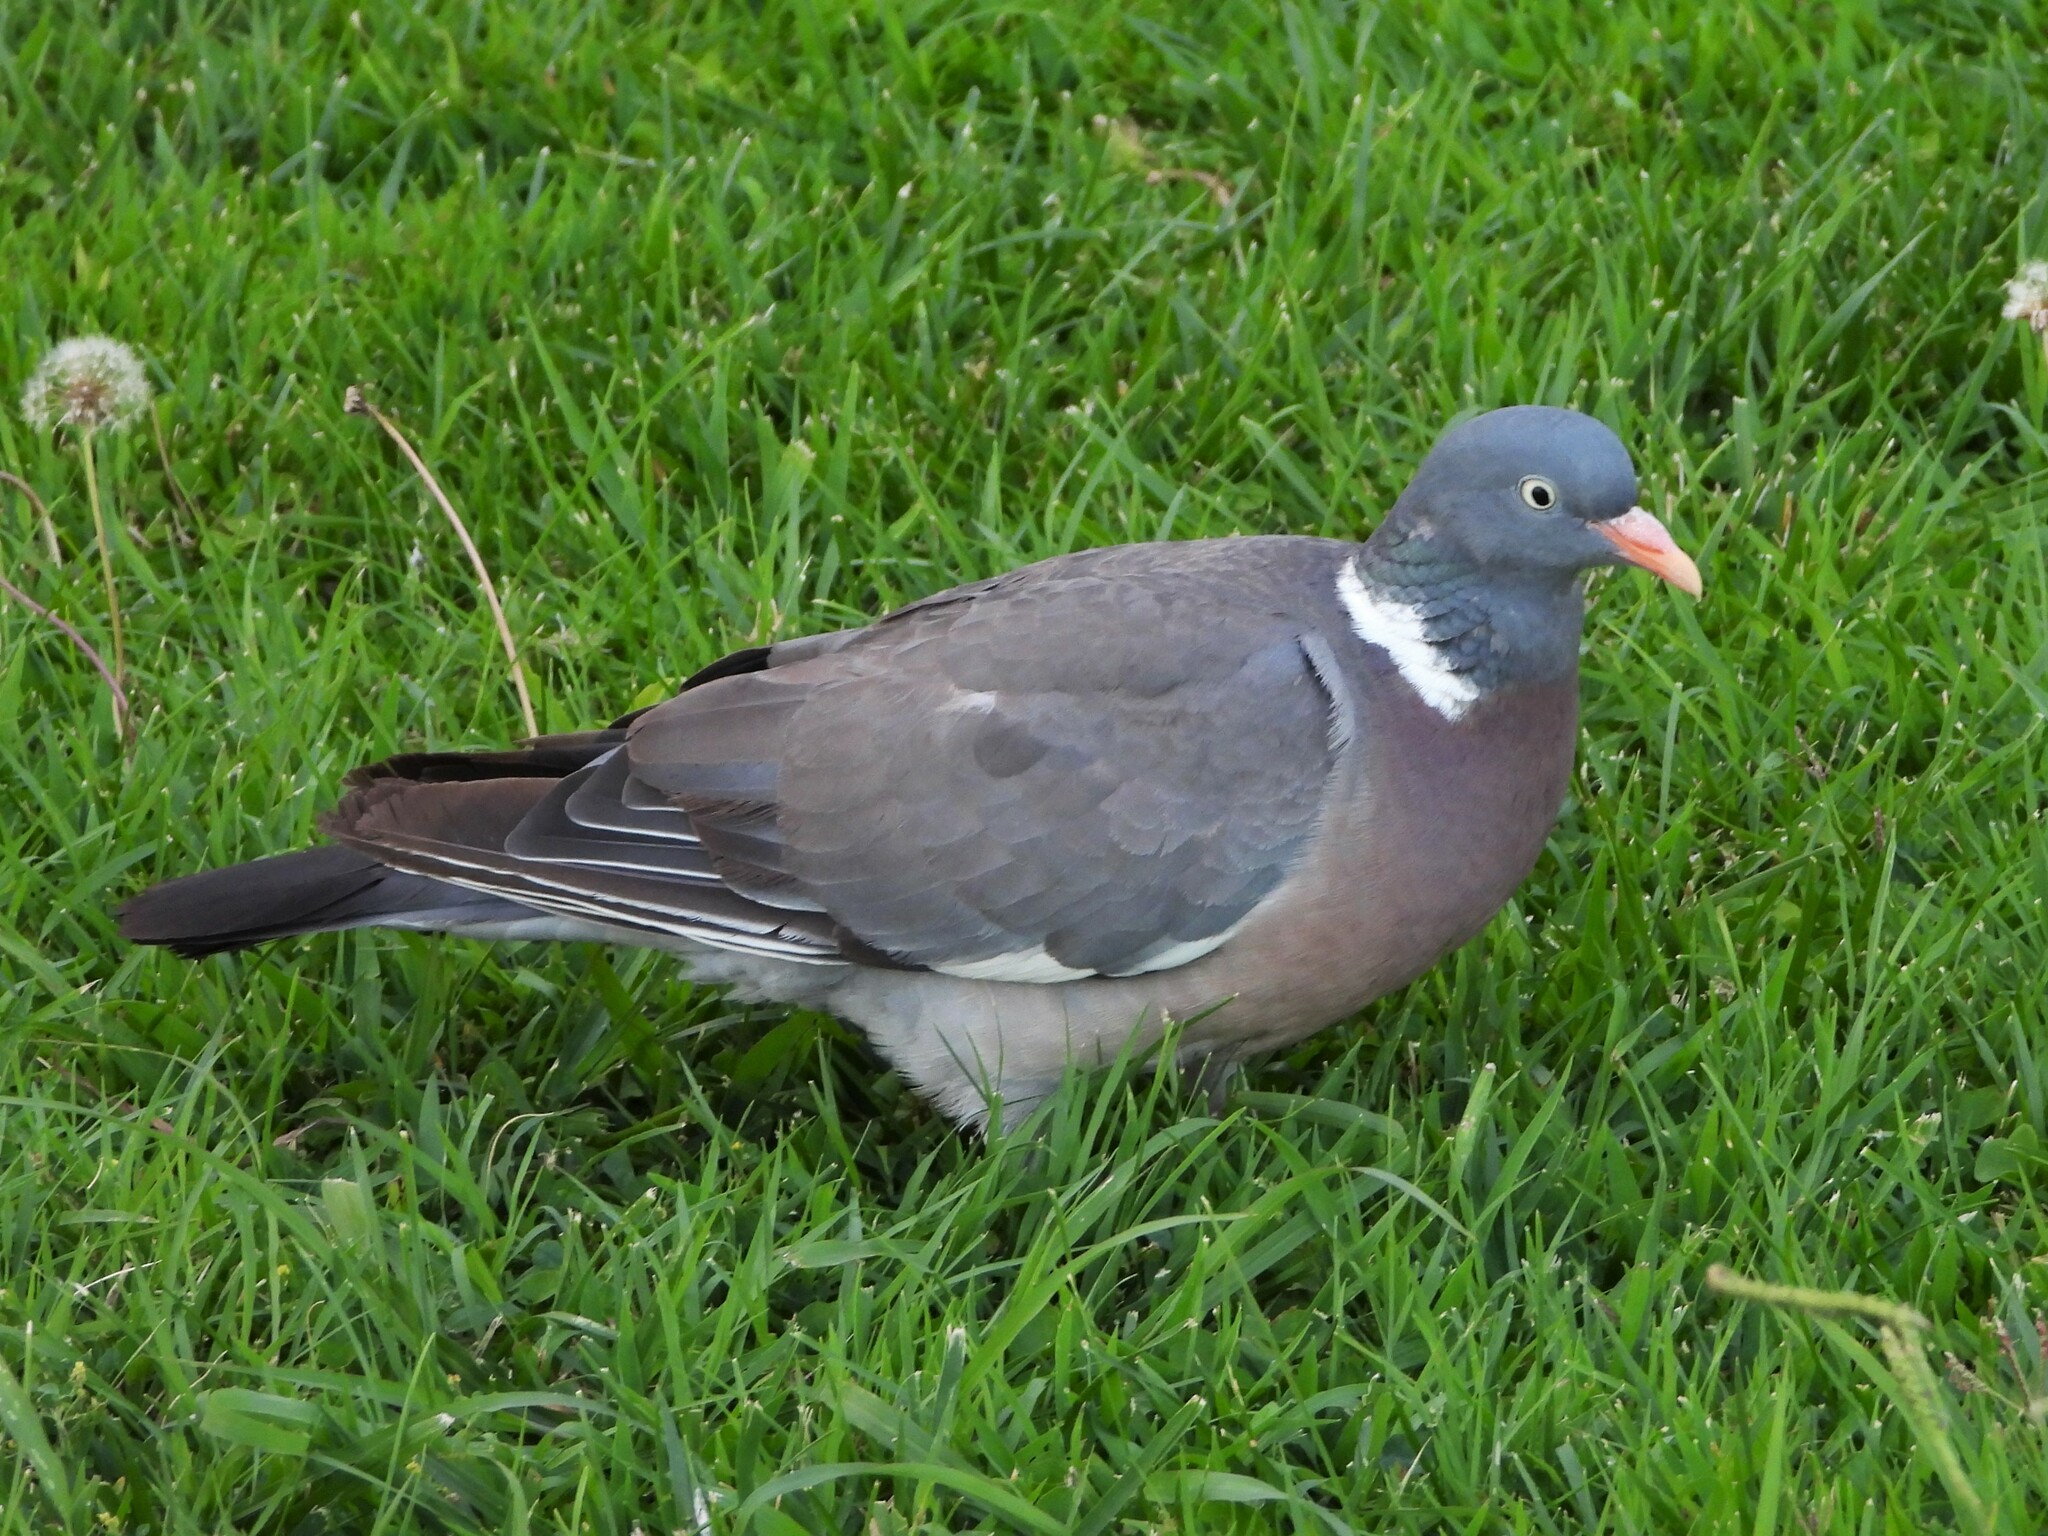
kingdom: Animalia
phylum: Chordata
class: Aves
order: Columbiformes
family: Columbidae
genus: Columba
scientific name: Columba palumbus
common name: Common wood pigeon
